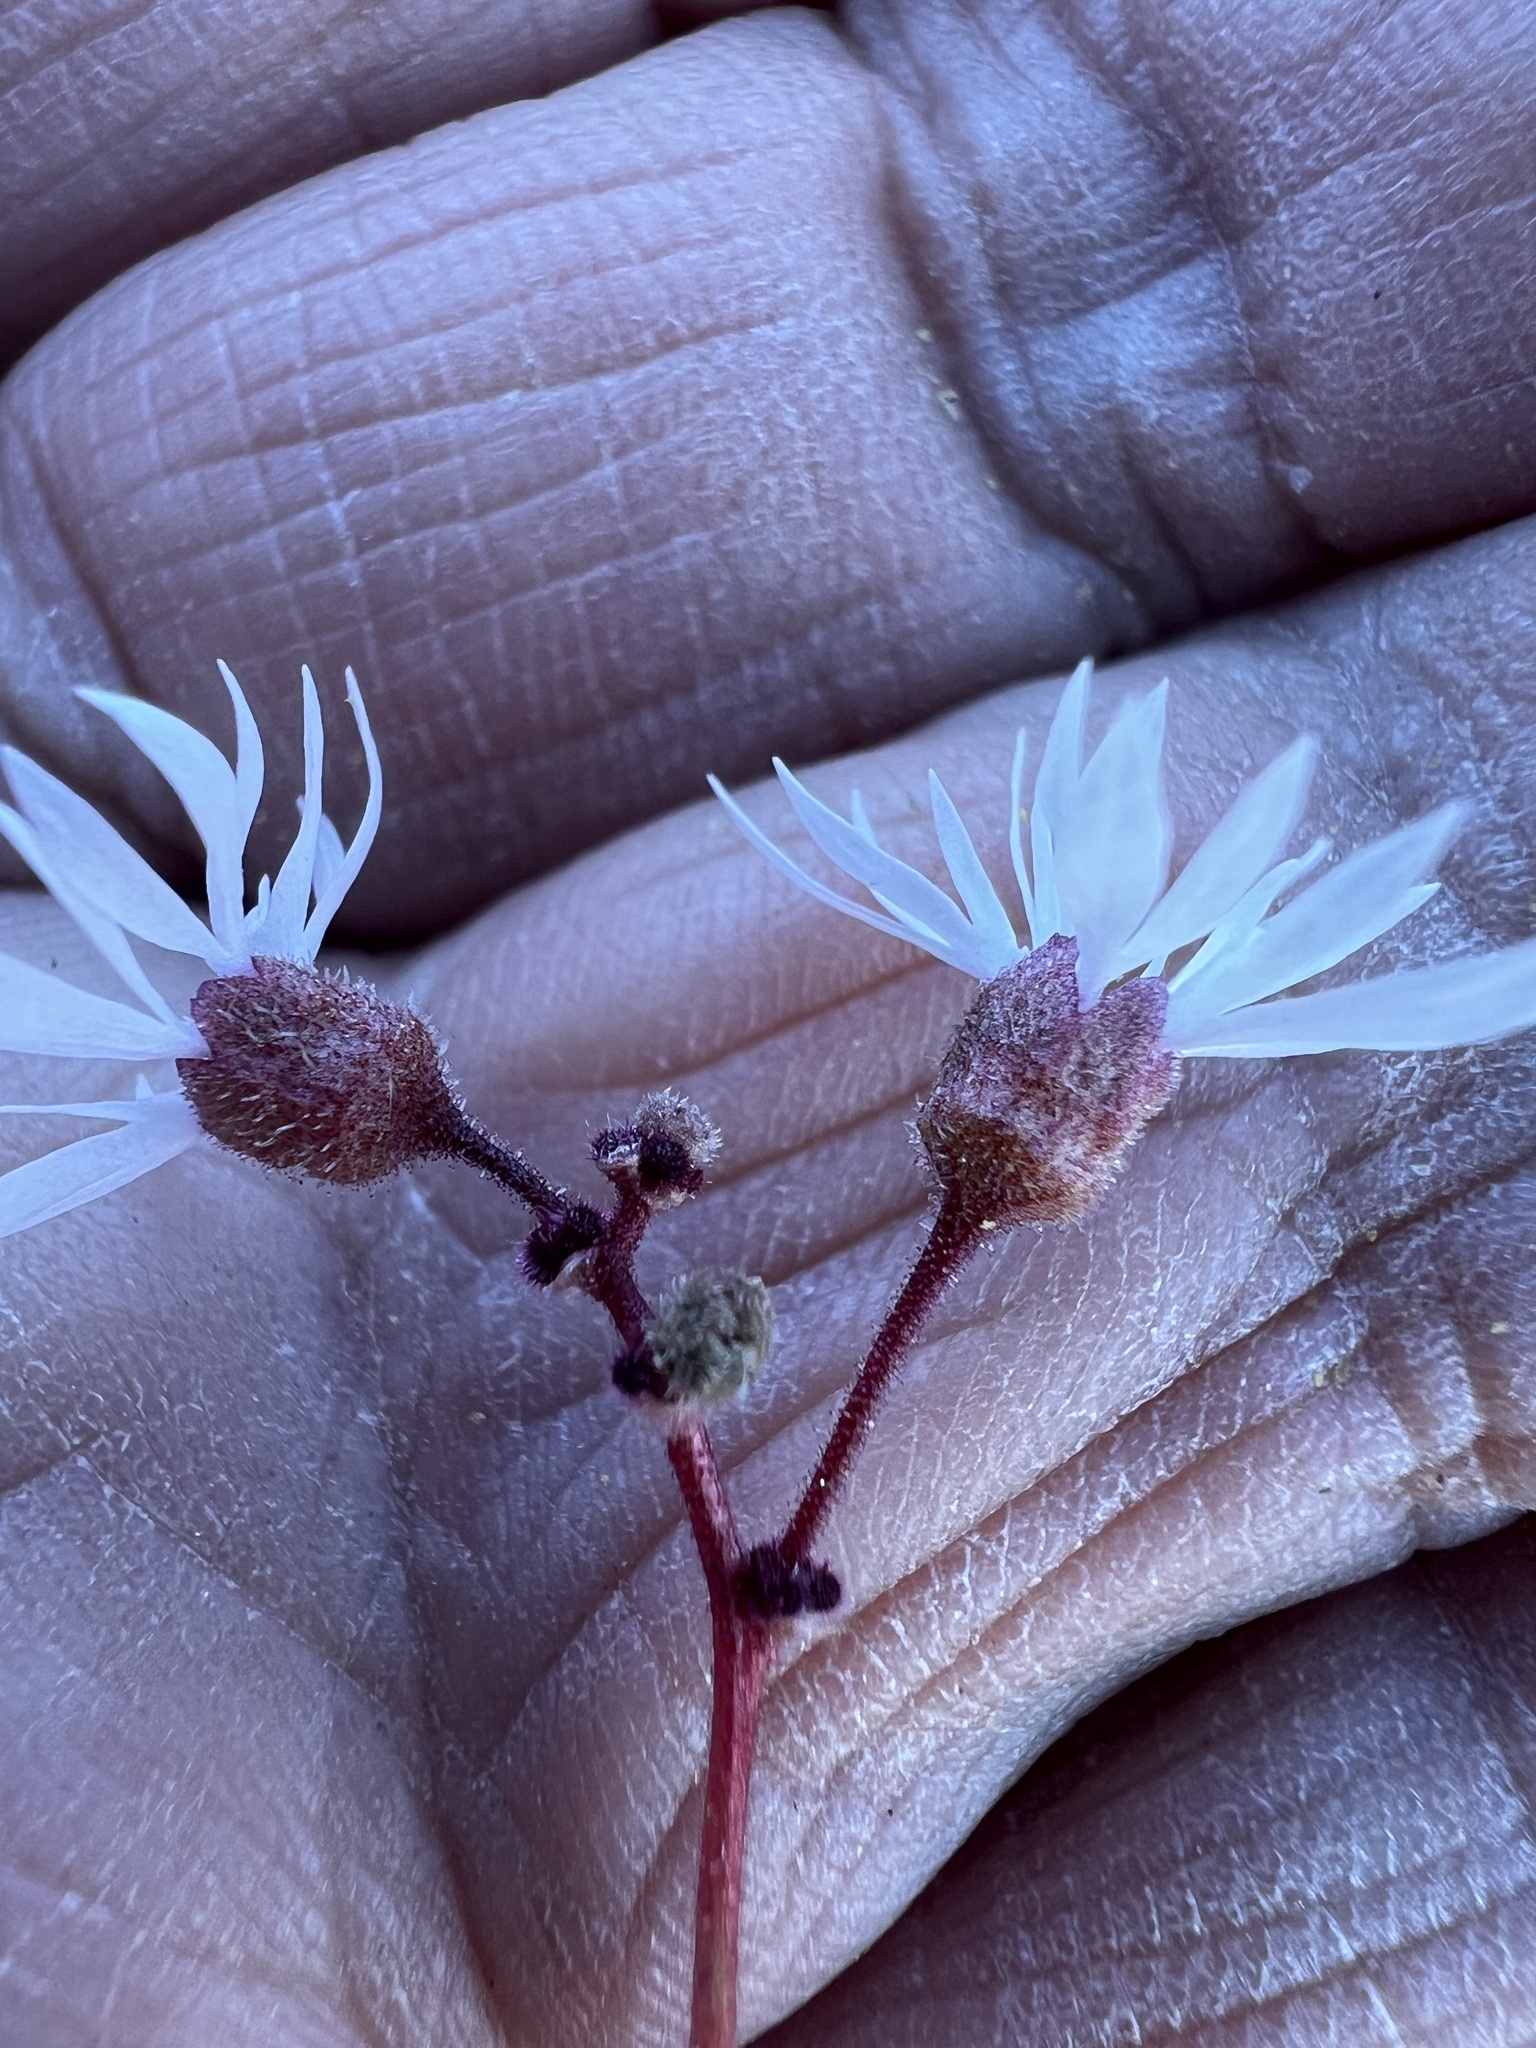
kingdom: Plantae
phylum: Tracheophyta
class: Magnoliopsida
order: Saxifragales
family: Saxifragaceae
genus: Lithophragma
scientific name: Lithophragma glabrum
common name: Bulbous prairie-star
